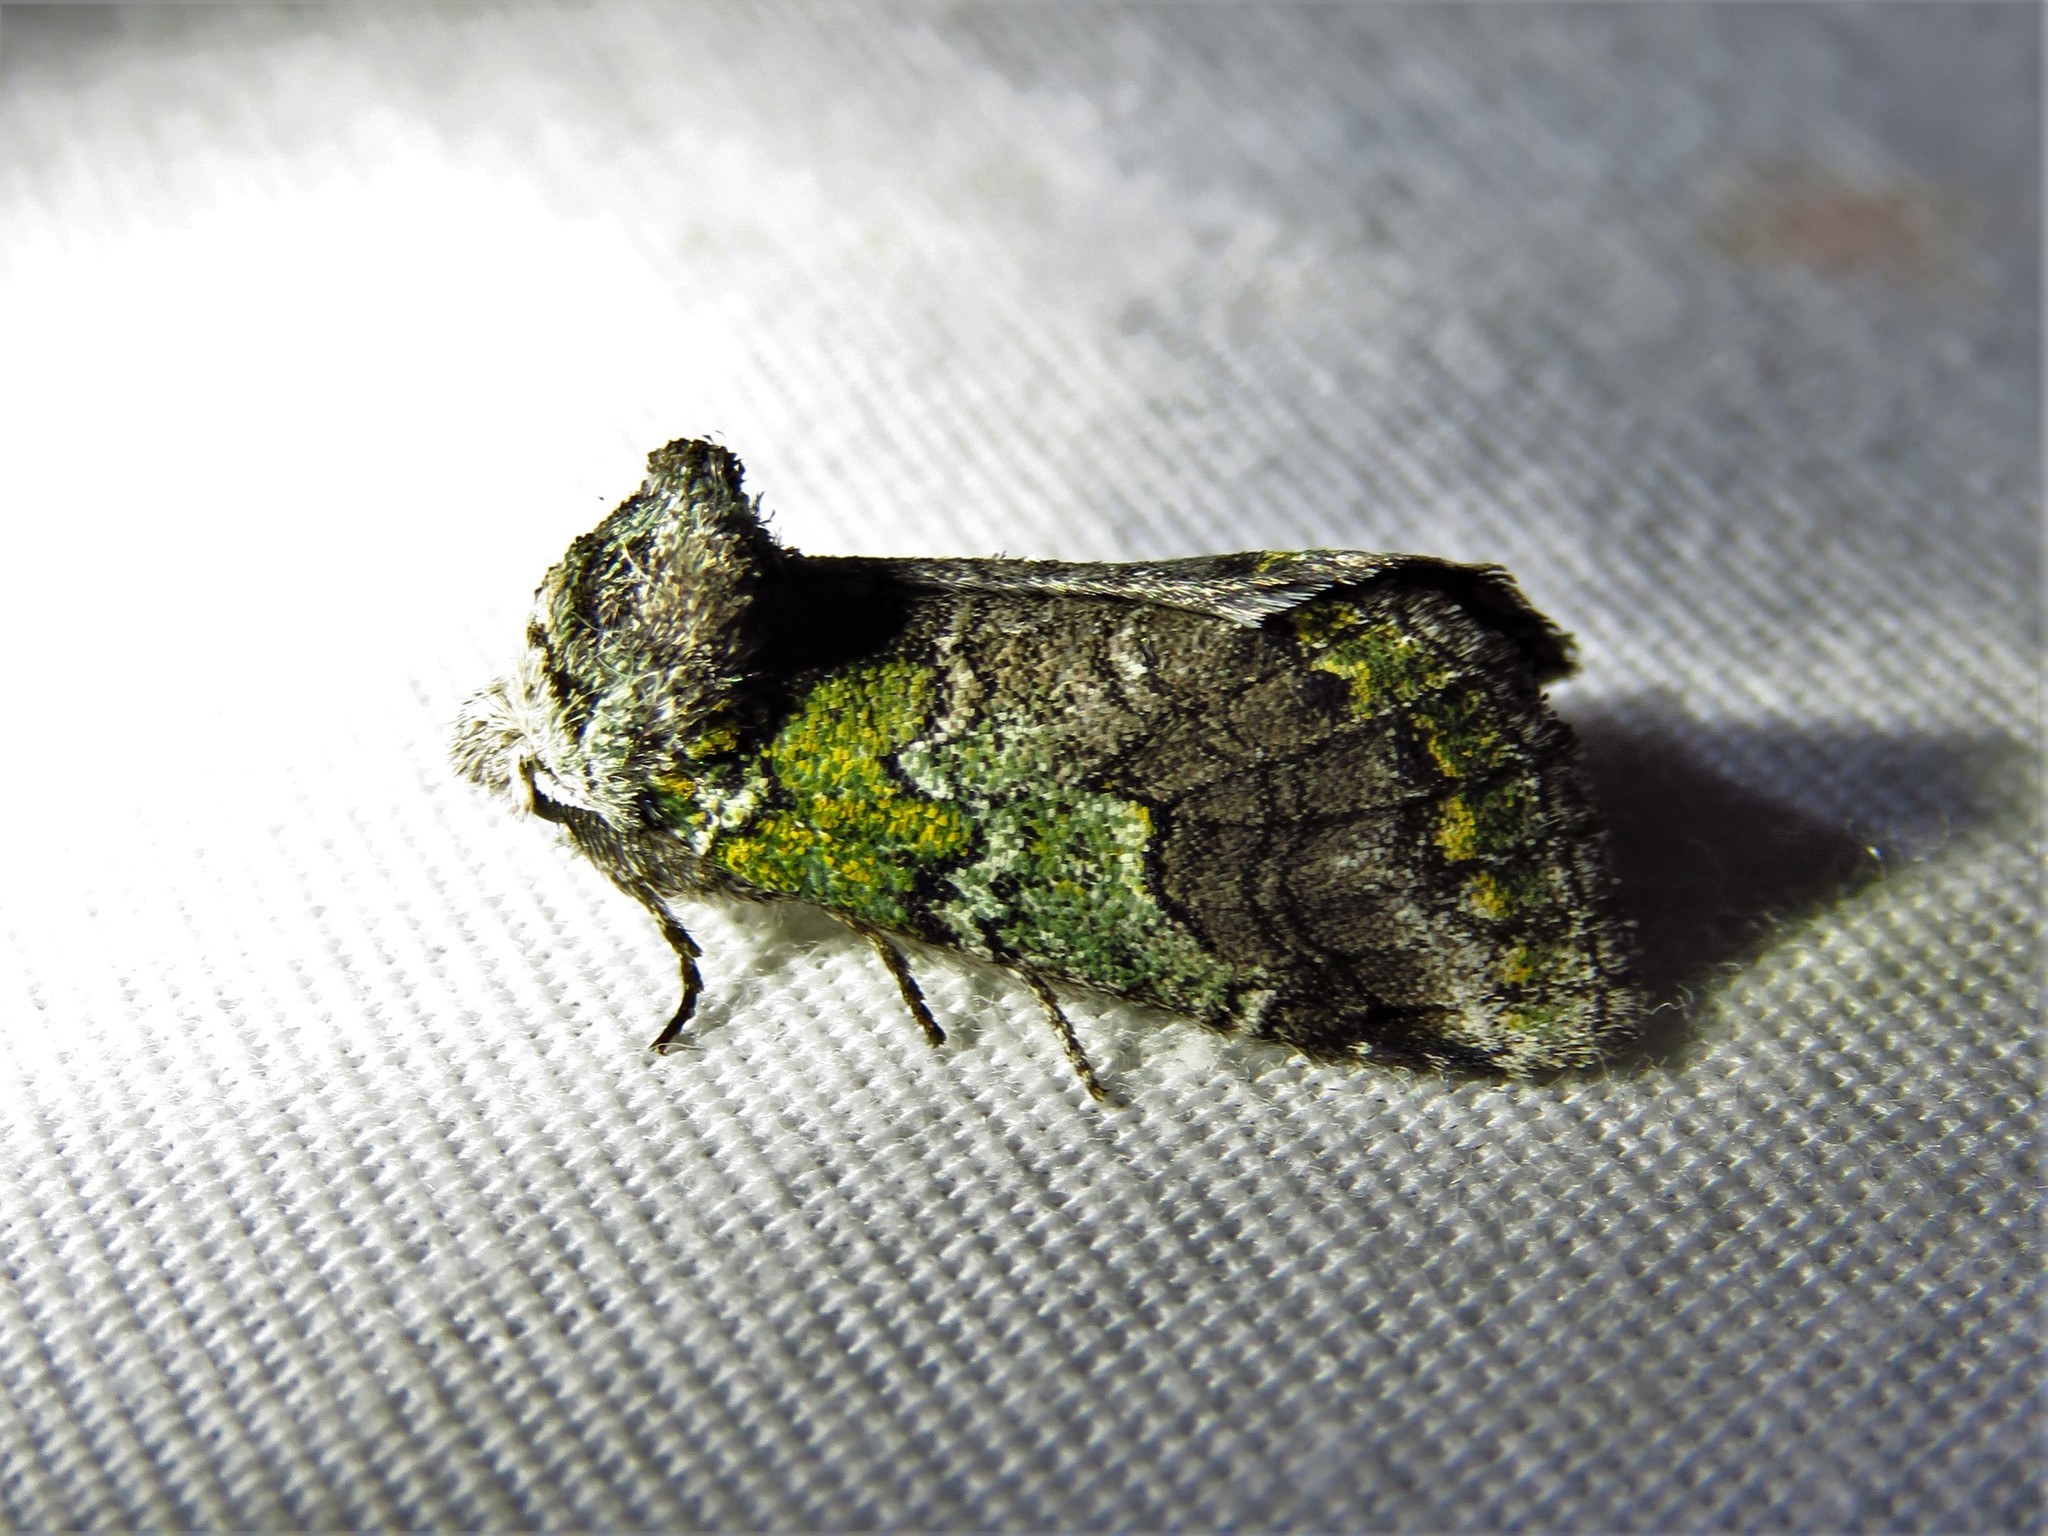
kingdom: Animalia
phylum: Arthropoda
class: Insecta
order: Lepidoptera
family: Notodontidae
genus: Litodonta
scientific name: Litodonta hydromeli
